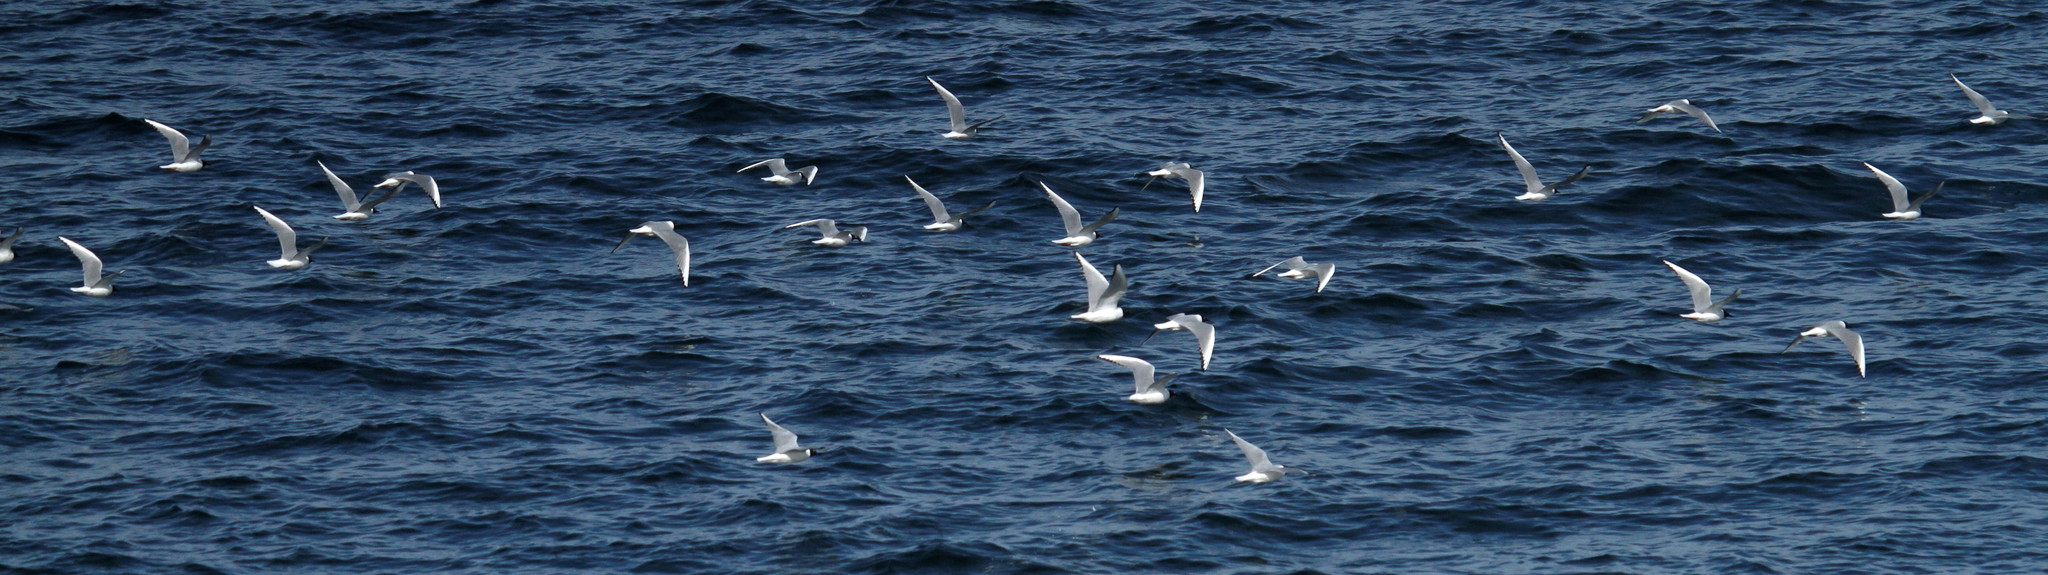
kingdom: Animalia
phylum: Chordata
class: Aves
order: Charadriiformes
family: Laridae
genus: Chroicocephalus
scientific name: Chroicocephalus philadelphia
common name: Bonaparte's gull
